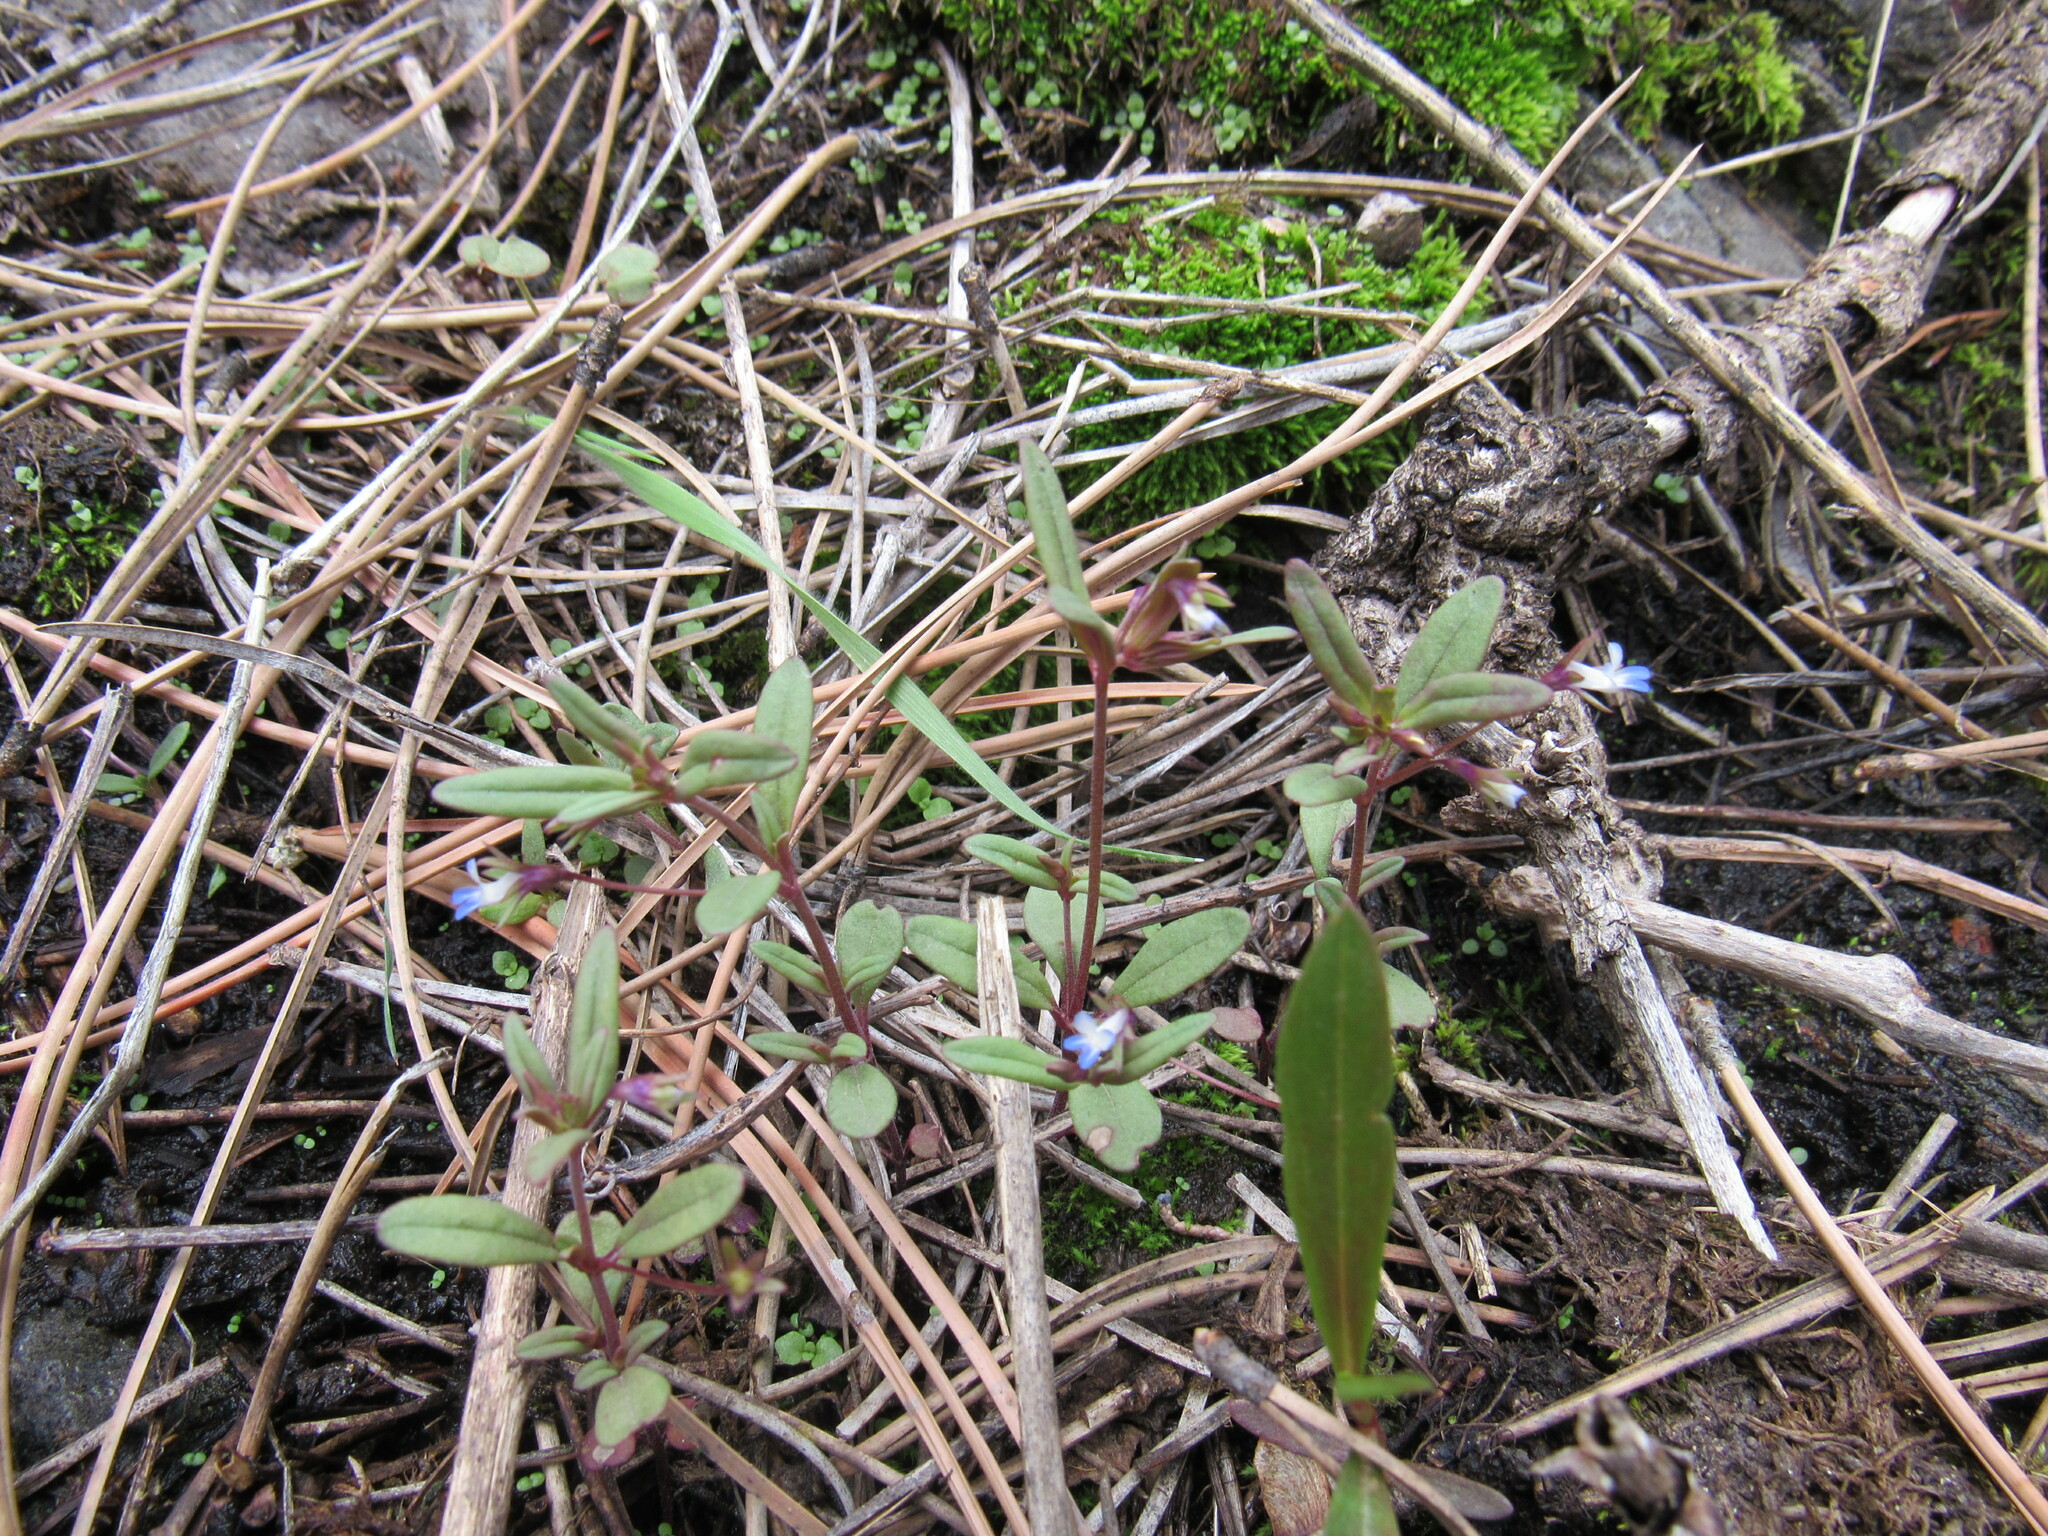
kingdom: Plantae
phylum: Tracheophyta
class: Magnoliopsida
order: Lamiales
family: Plantaginaceae
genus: Collinsia
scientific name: Collinsia parviflora
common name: Blue-lips
